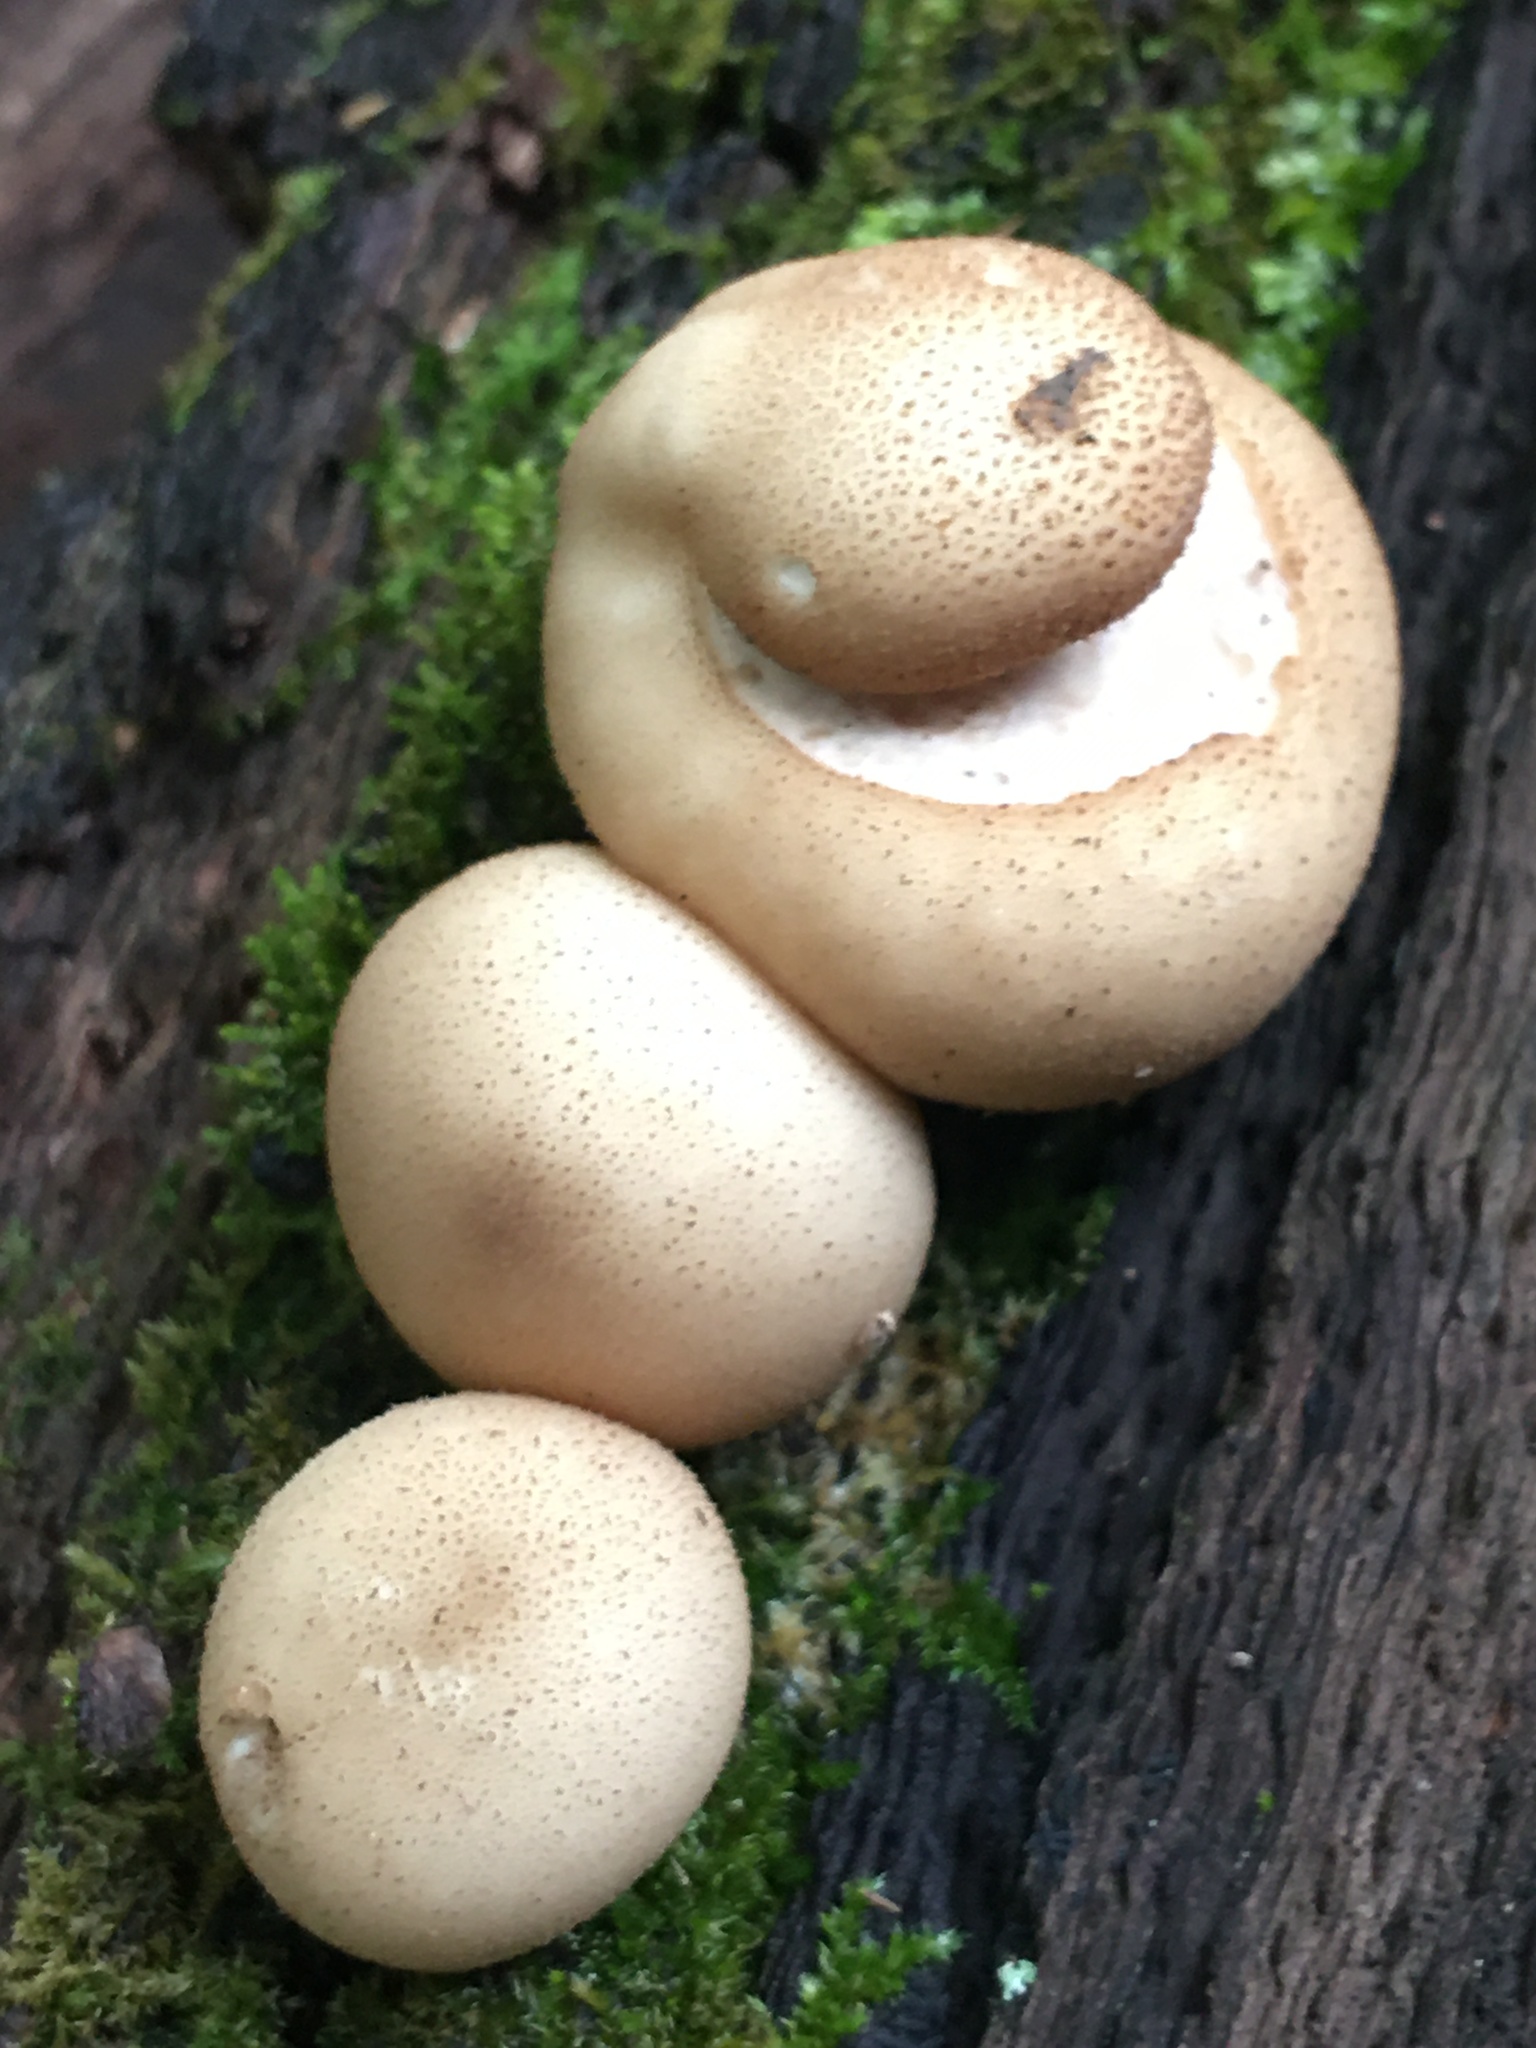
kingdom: Fungi
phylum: Basidiomycota
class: Agaricomycetes
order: Agaricales
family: Lycoperdaceae
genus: Apioperdon
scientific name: Apioperdon pyriforme
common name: Pear-shaped puffball
